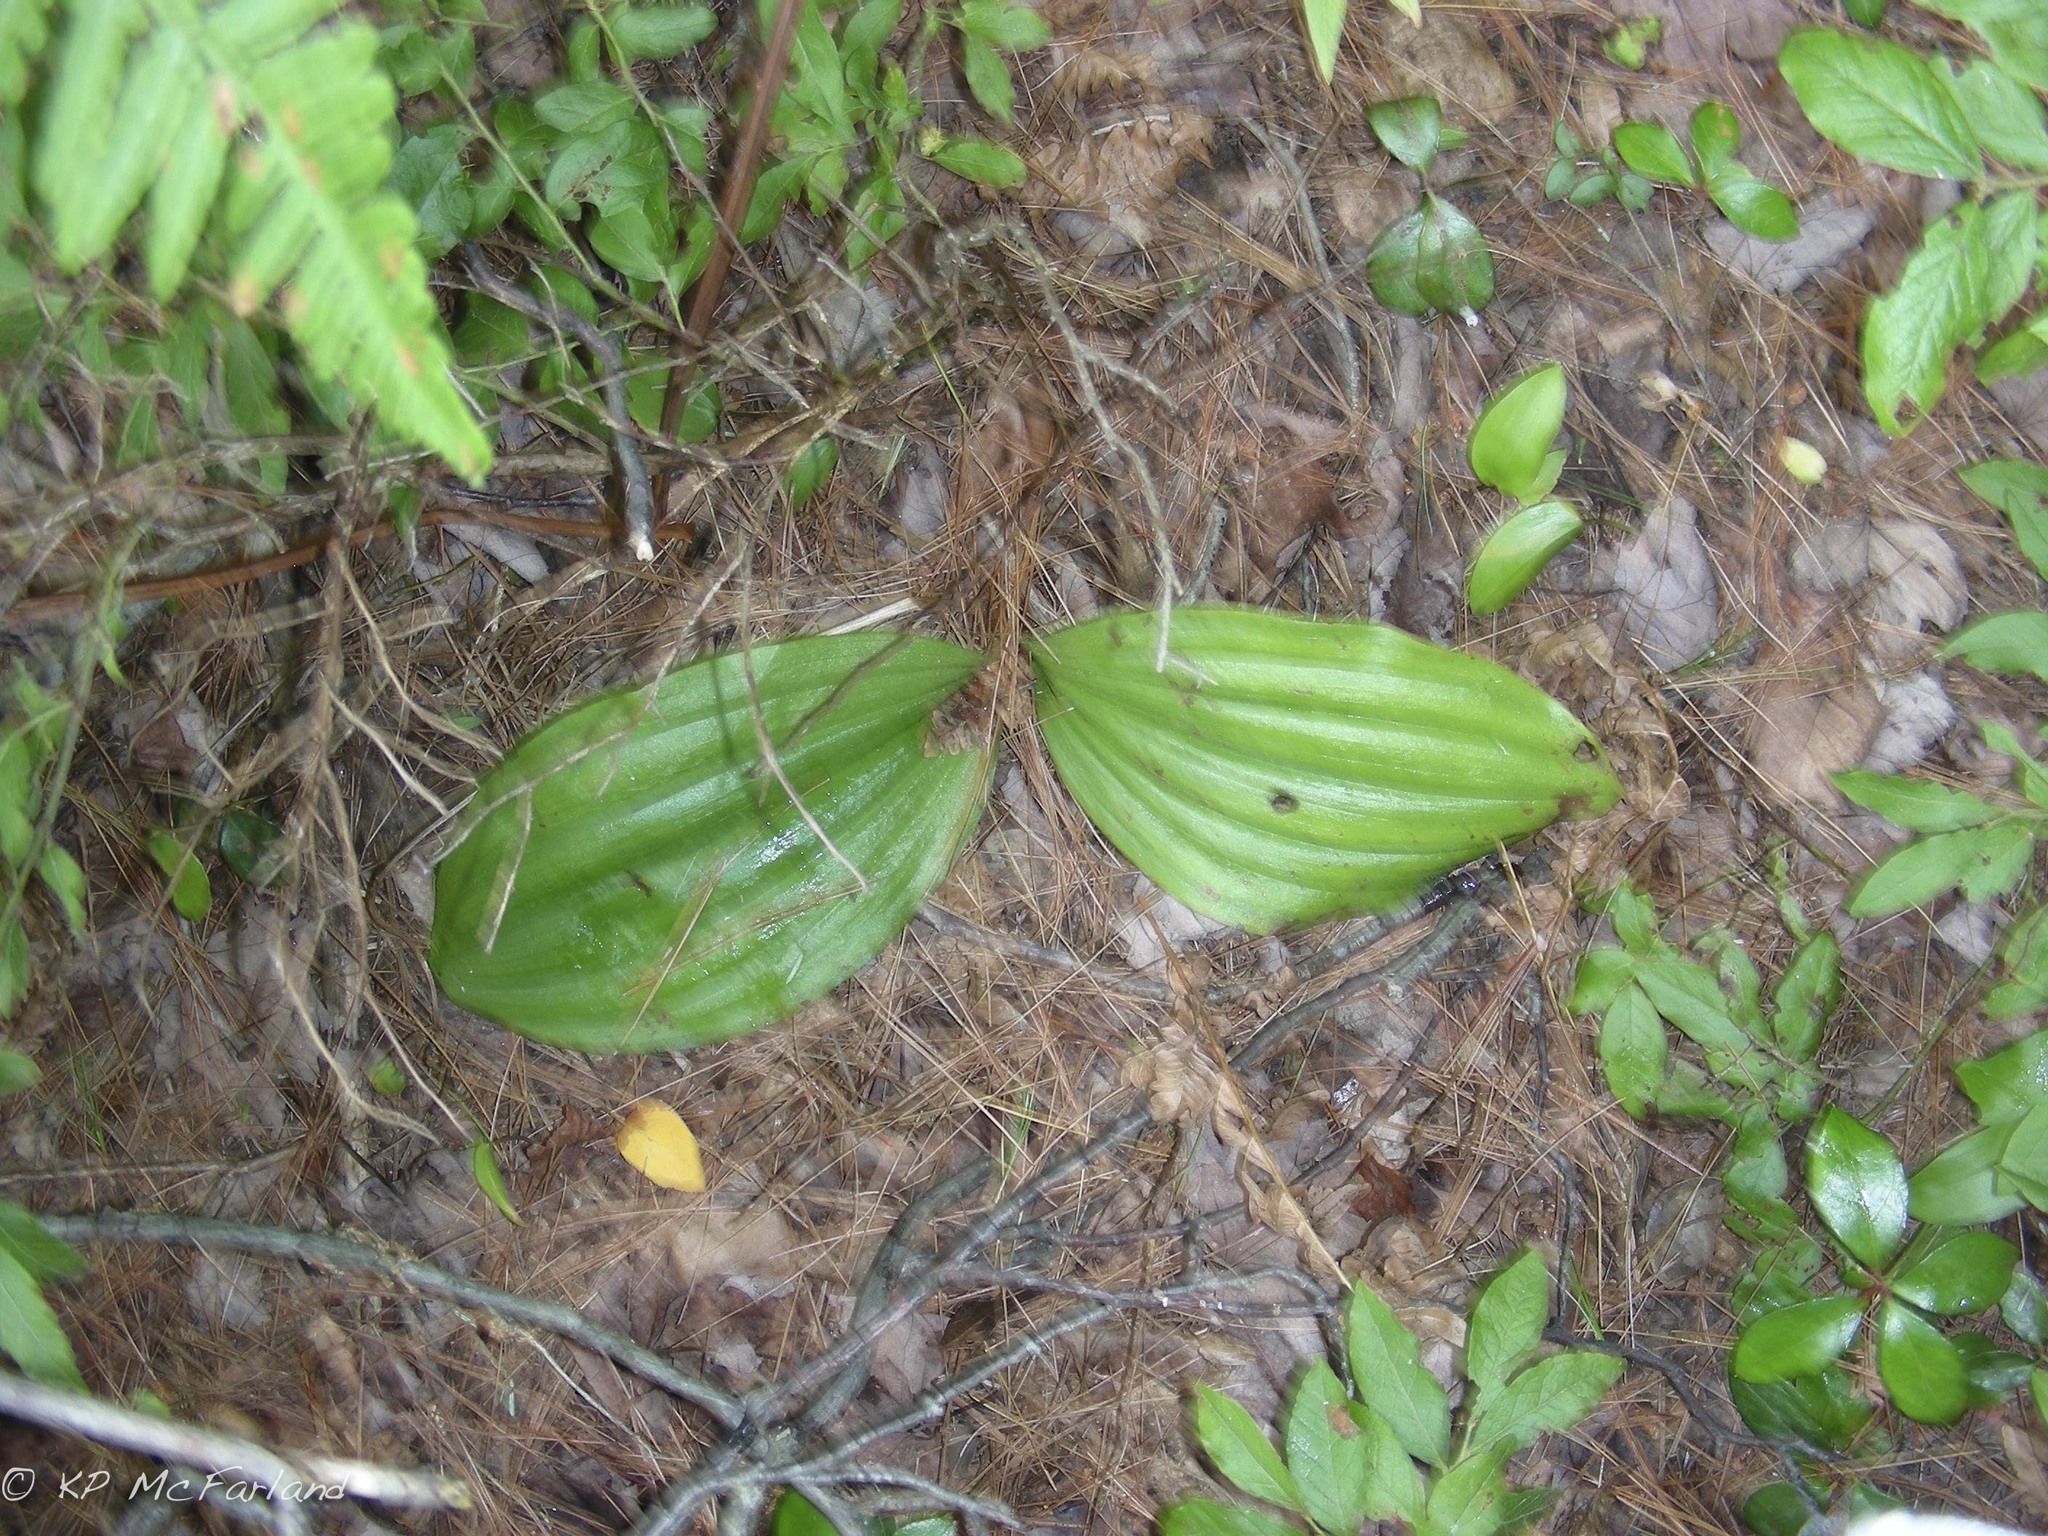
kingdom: Plantae
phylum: Tracheophyta
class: Liliopsida
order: Asparagales
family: Orchidaceae
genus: Cypripedium
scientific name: Cypripedium acaule
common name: Pink lady's-slipper
